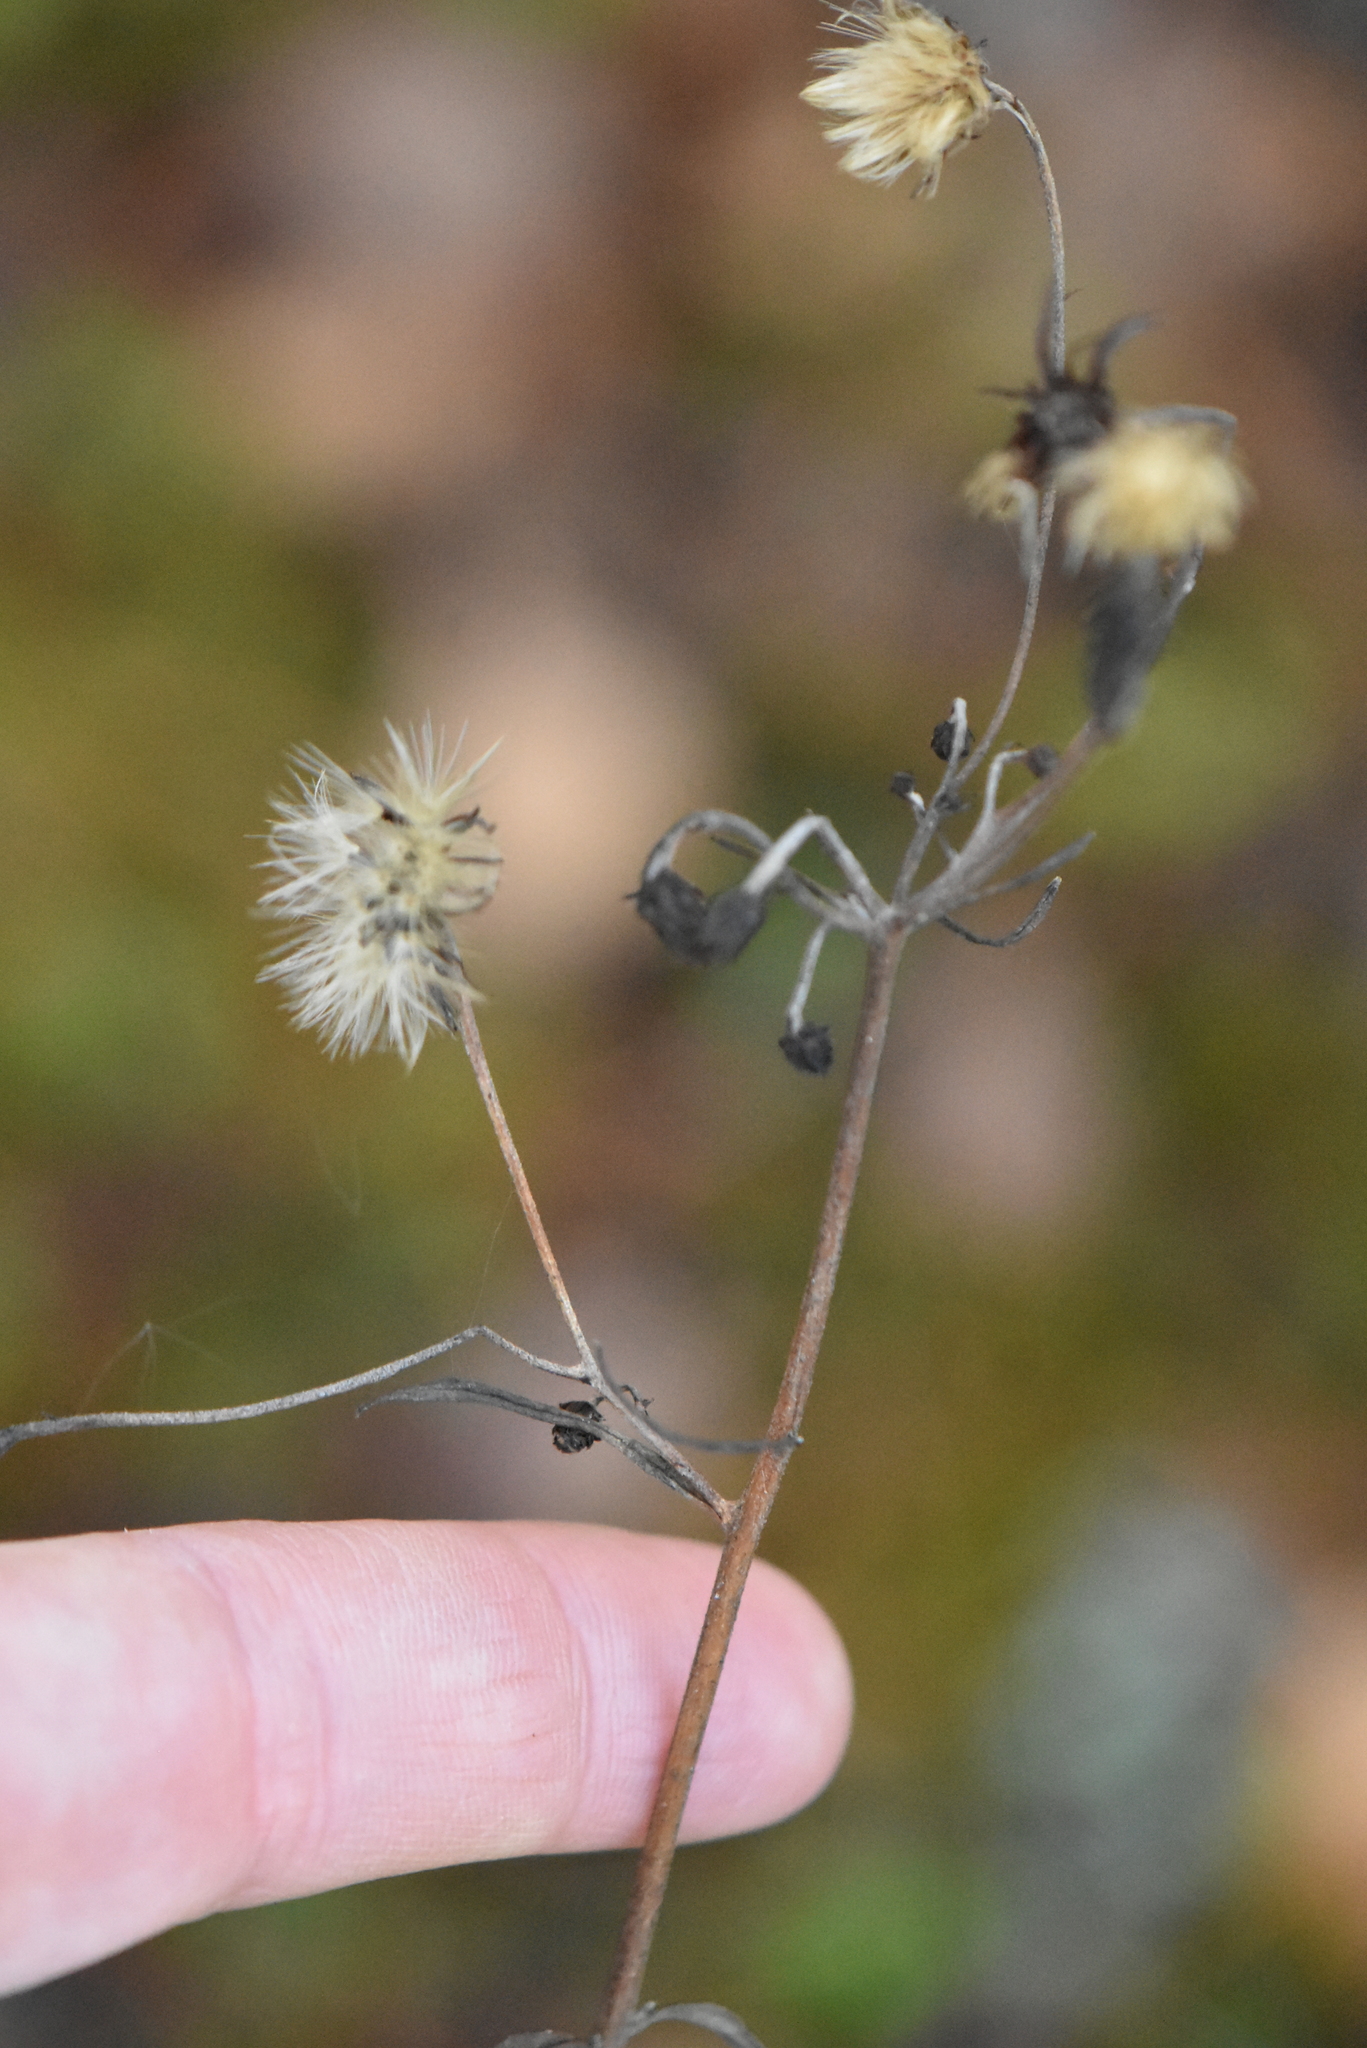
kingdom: Plantae
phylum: Tracheophyta
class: Magnoliopsida
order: Asterales
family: Asteraceae
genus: Hieracium
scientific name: Hieracium umbellatum
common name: Northern hawkweed
